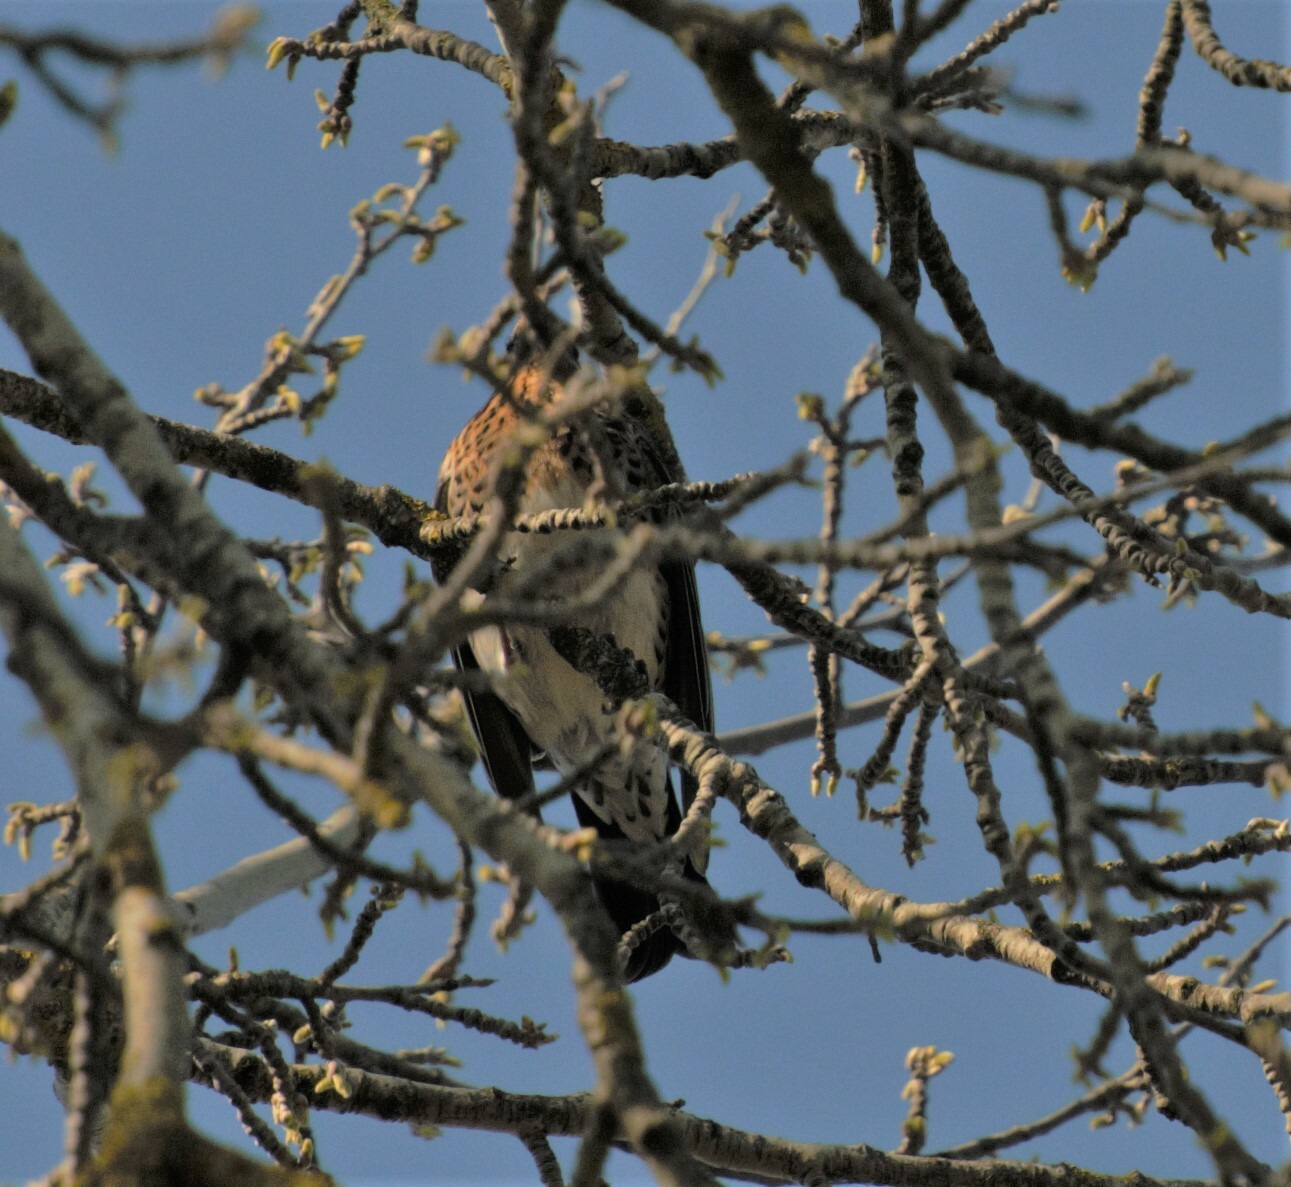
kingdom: Animalia
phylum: Chordata
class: Aves
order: Passeriformes
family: Turdidae
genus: Turdus
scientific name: Turdus pilaris
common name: Fieldfare
